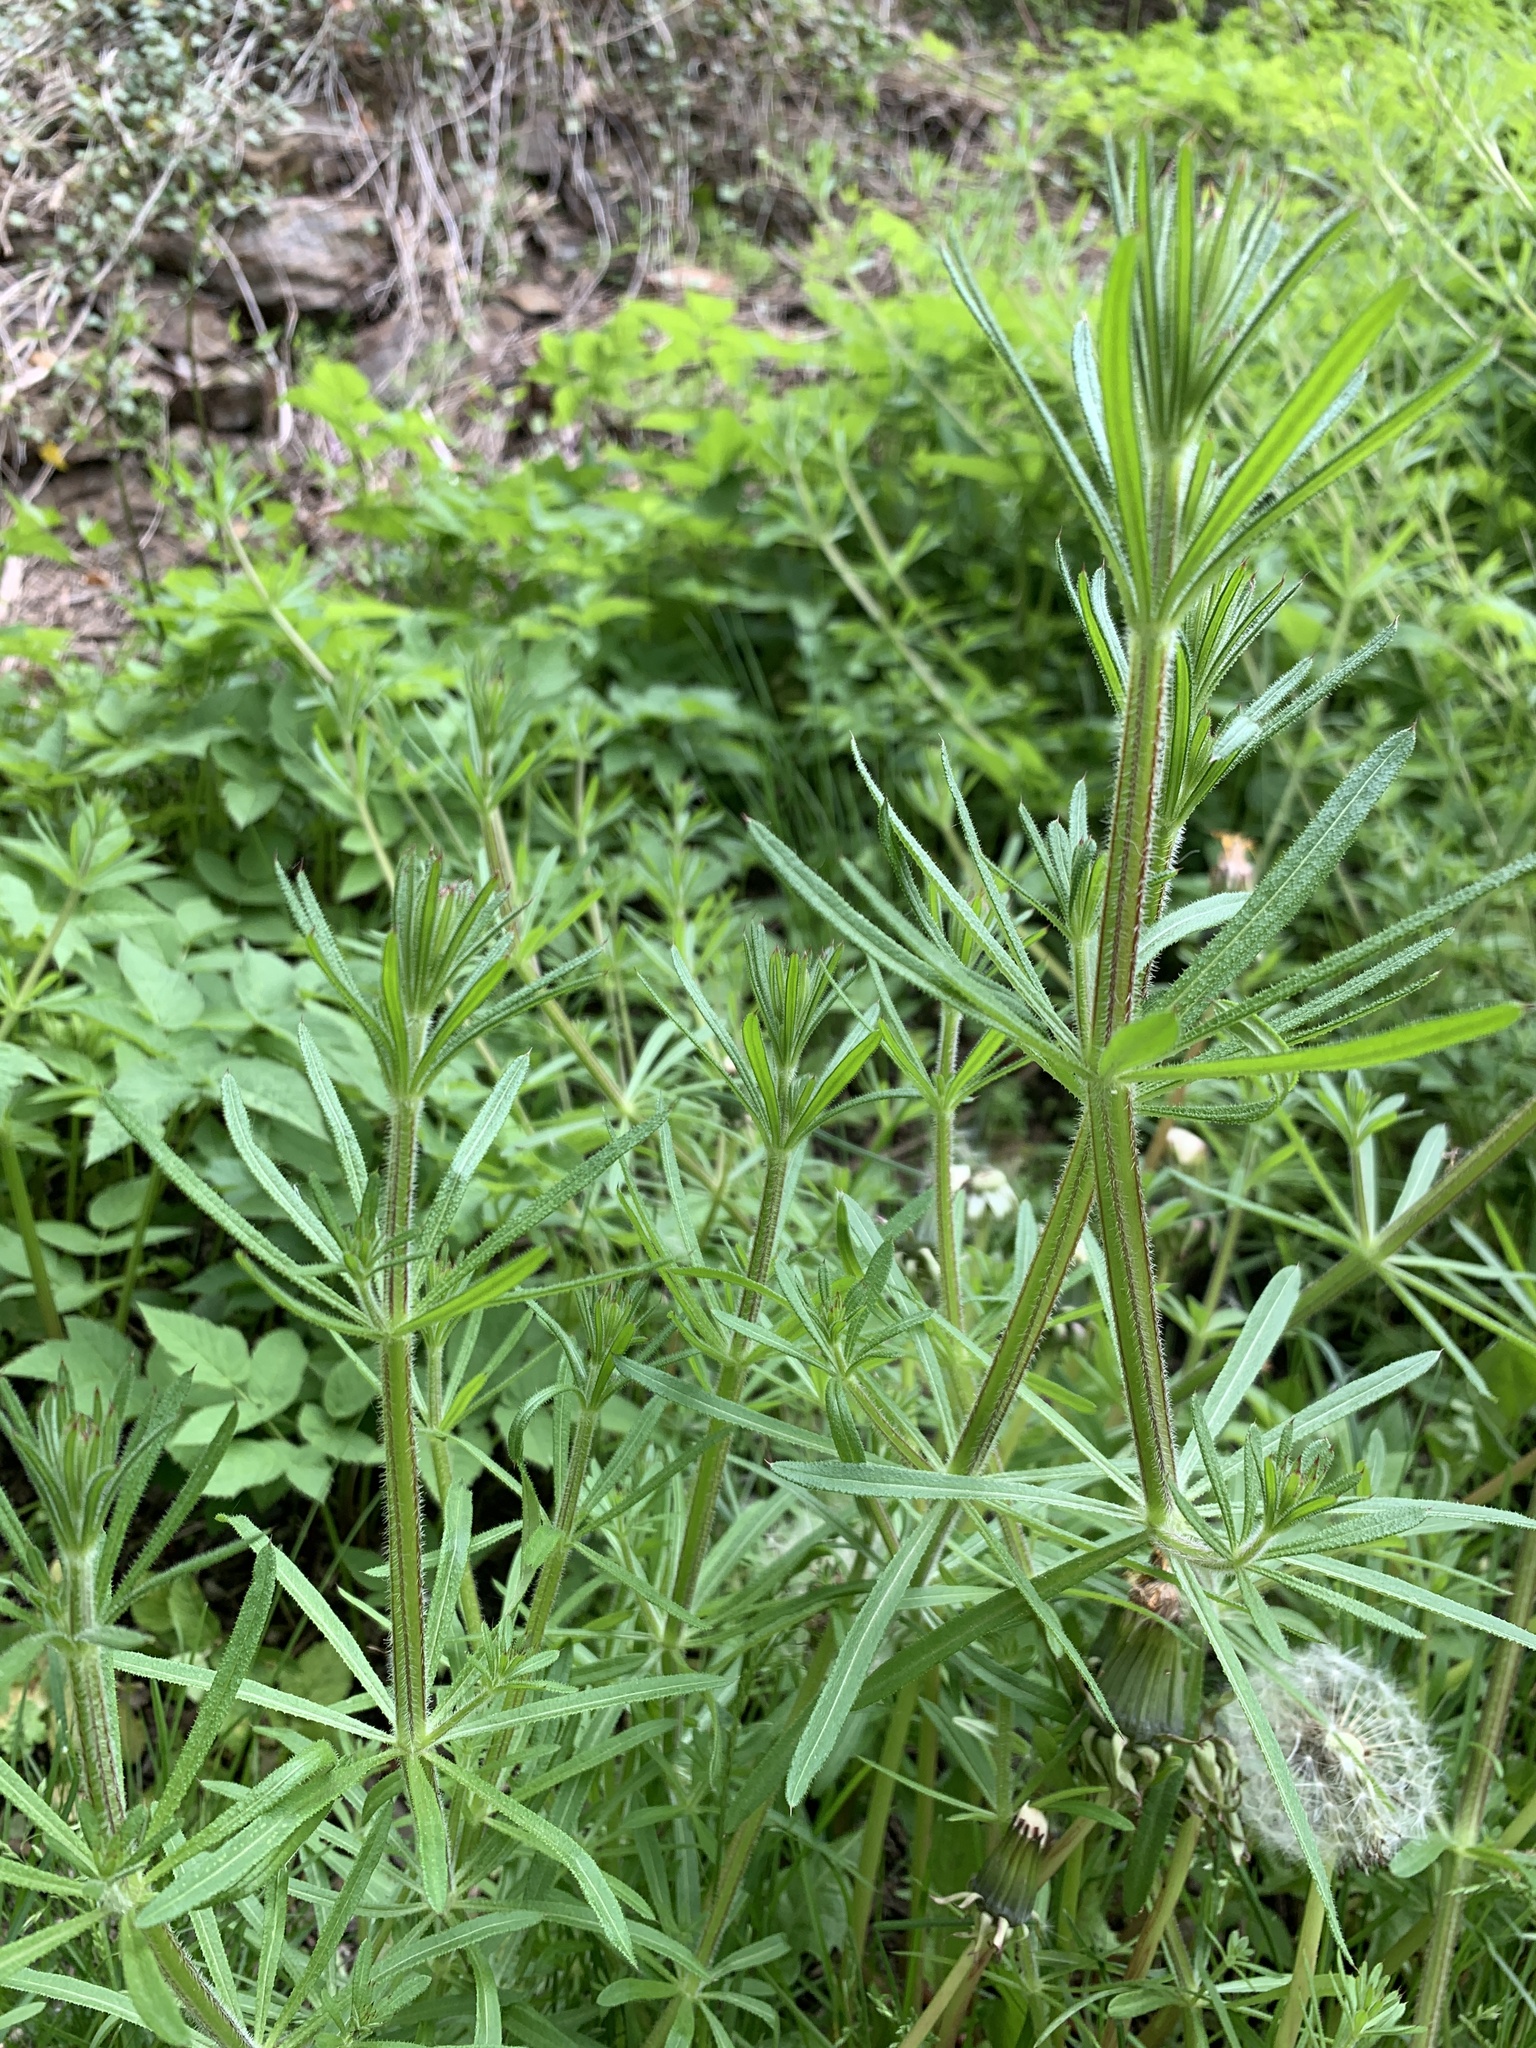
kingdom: Plantae
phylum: Tracheophyta
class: Magnoliopsida
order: Gentianales
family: Rubiaceae
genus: Galium
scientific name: Galium aparine
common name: Cleavers
